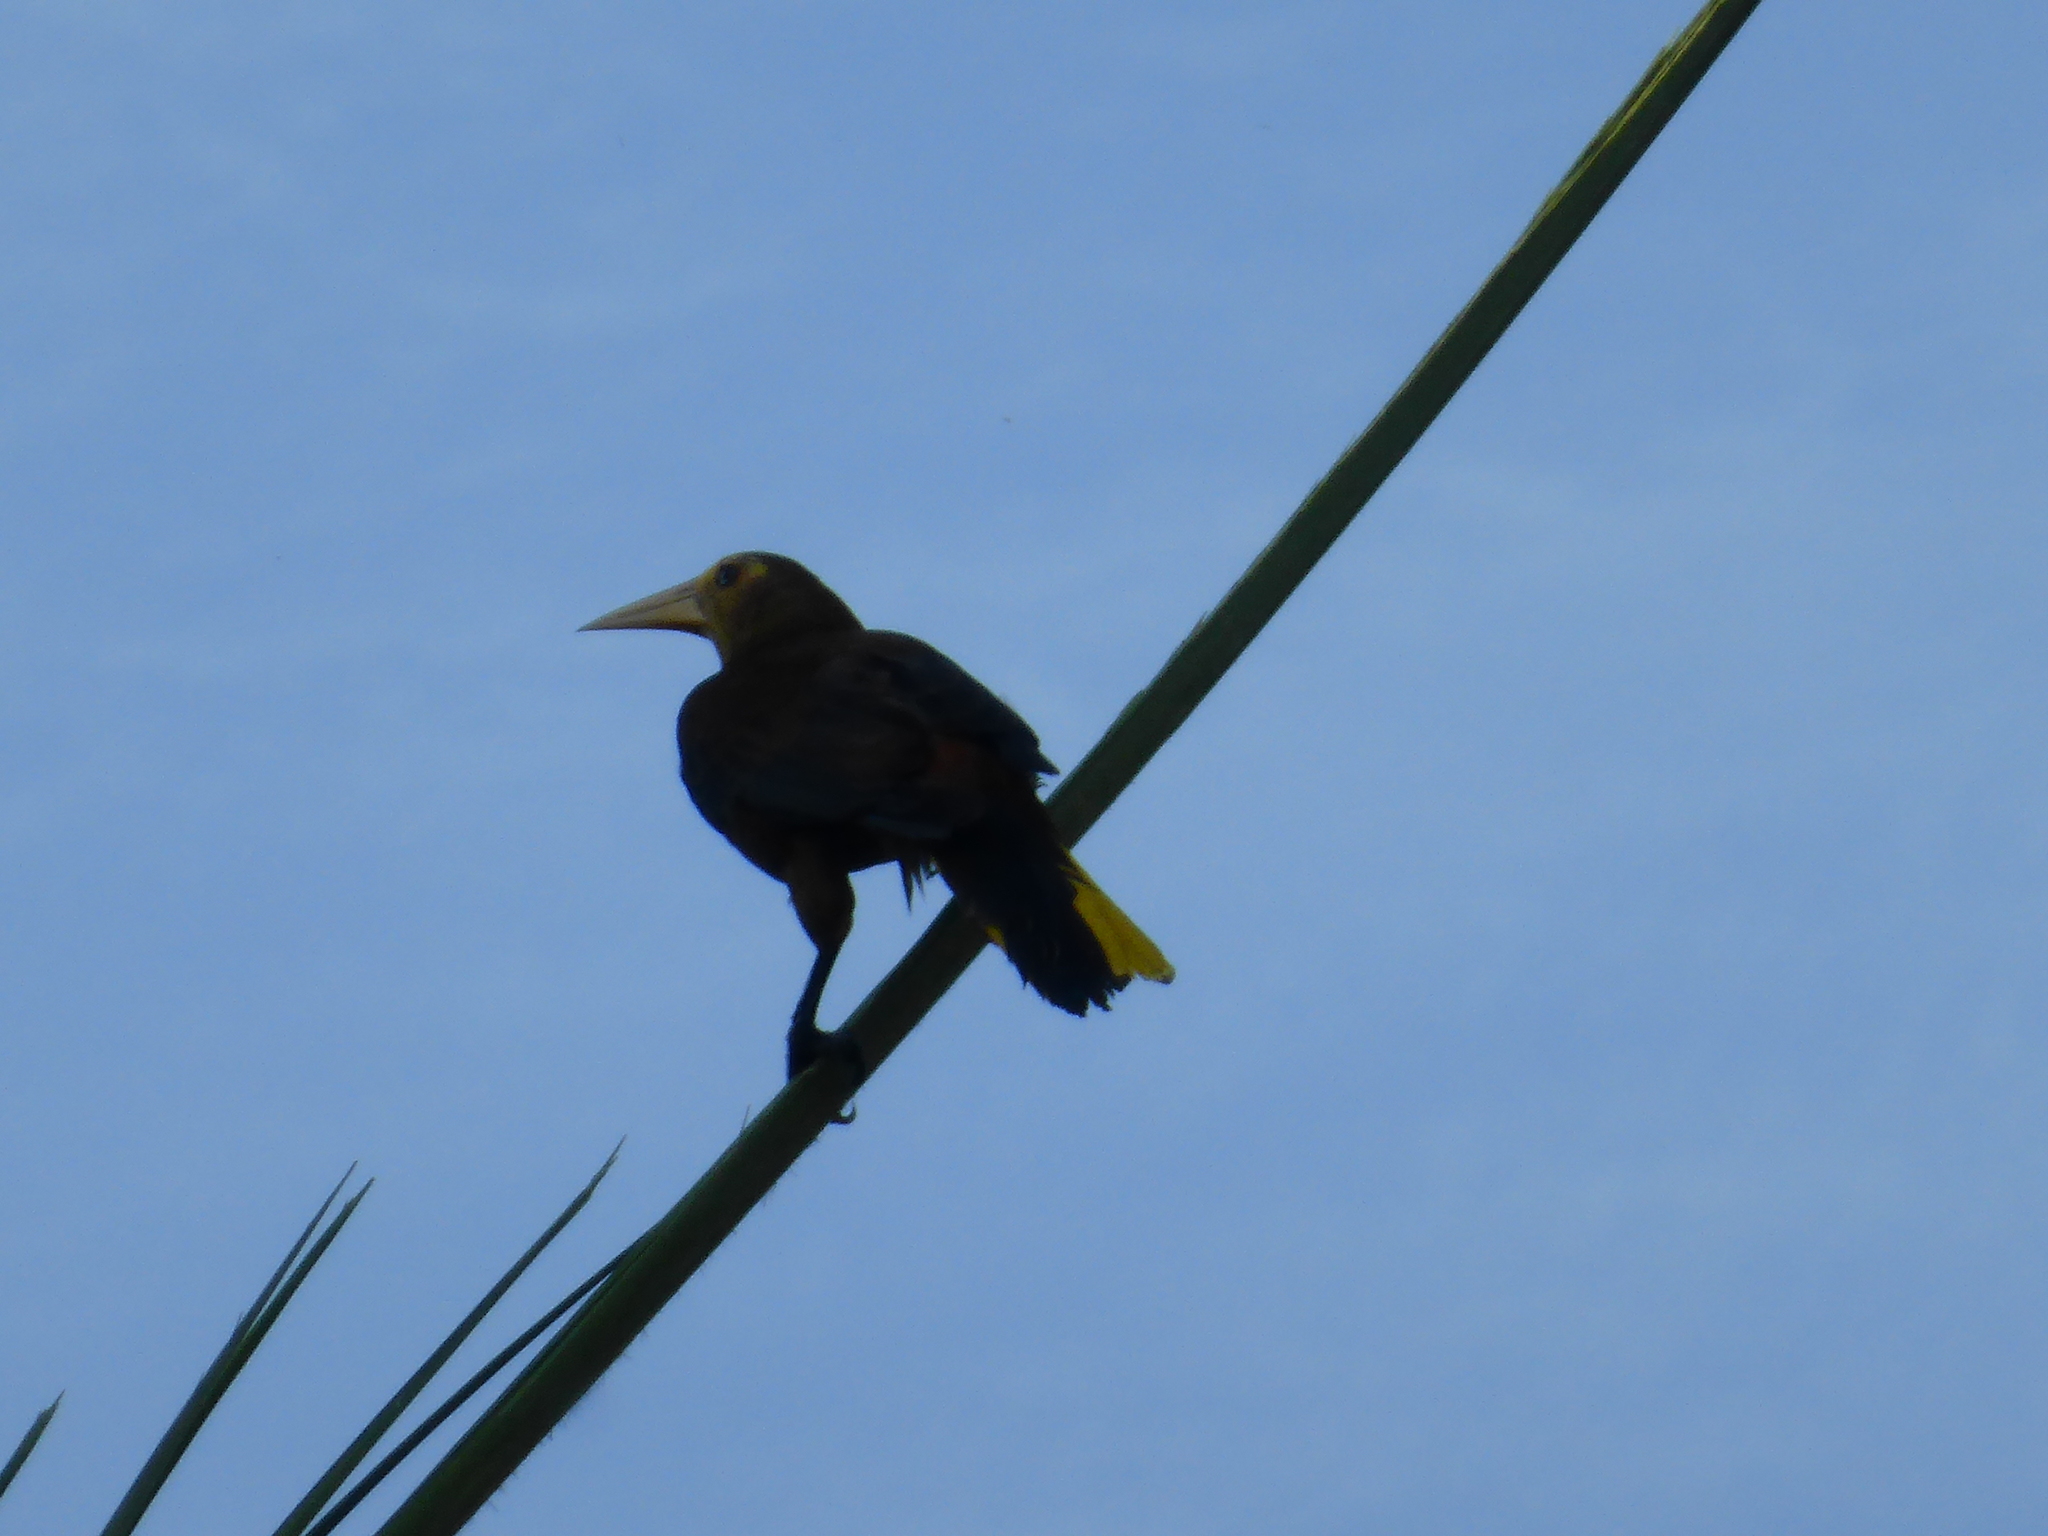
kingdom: Animalia
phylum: Chordata
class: Aves
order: Passeriformes
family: Icteridae
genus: Psarocolius
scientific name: Psarocolius angustifrons
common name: Russet-backed oropendola
